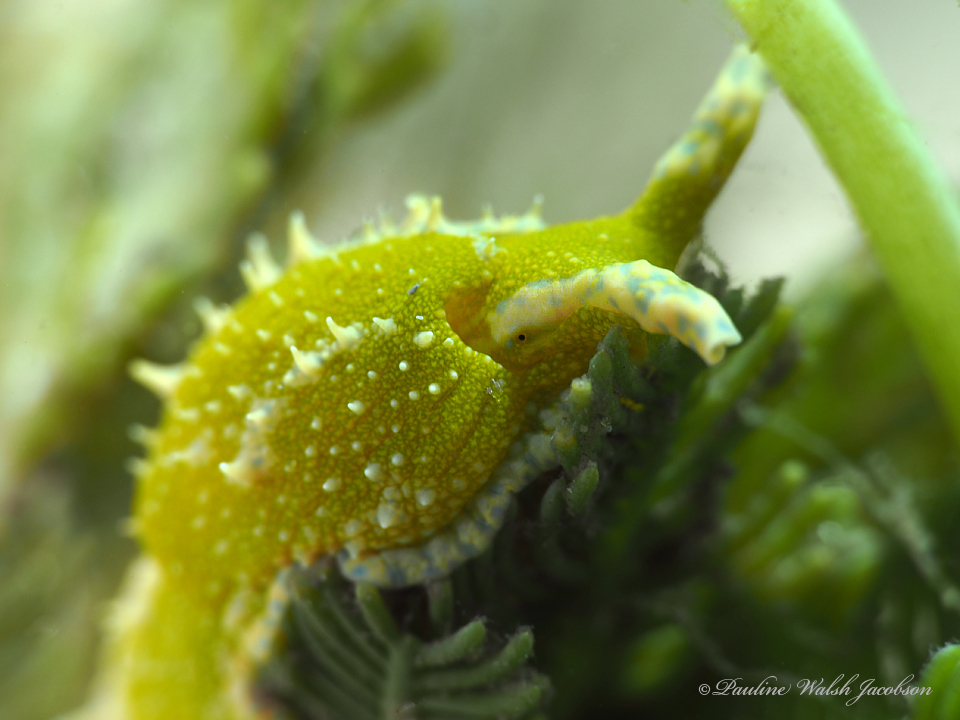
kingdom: Animalia
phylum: Mollusca
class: Gastropoda
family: Oxynoidae
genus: Oxynoe
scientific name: Oxynoe antillarum
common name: Antilles oxynoe
